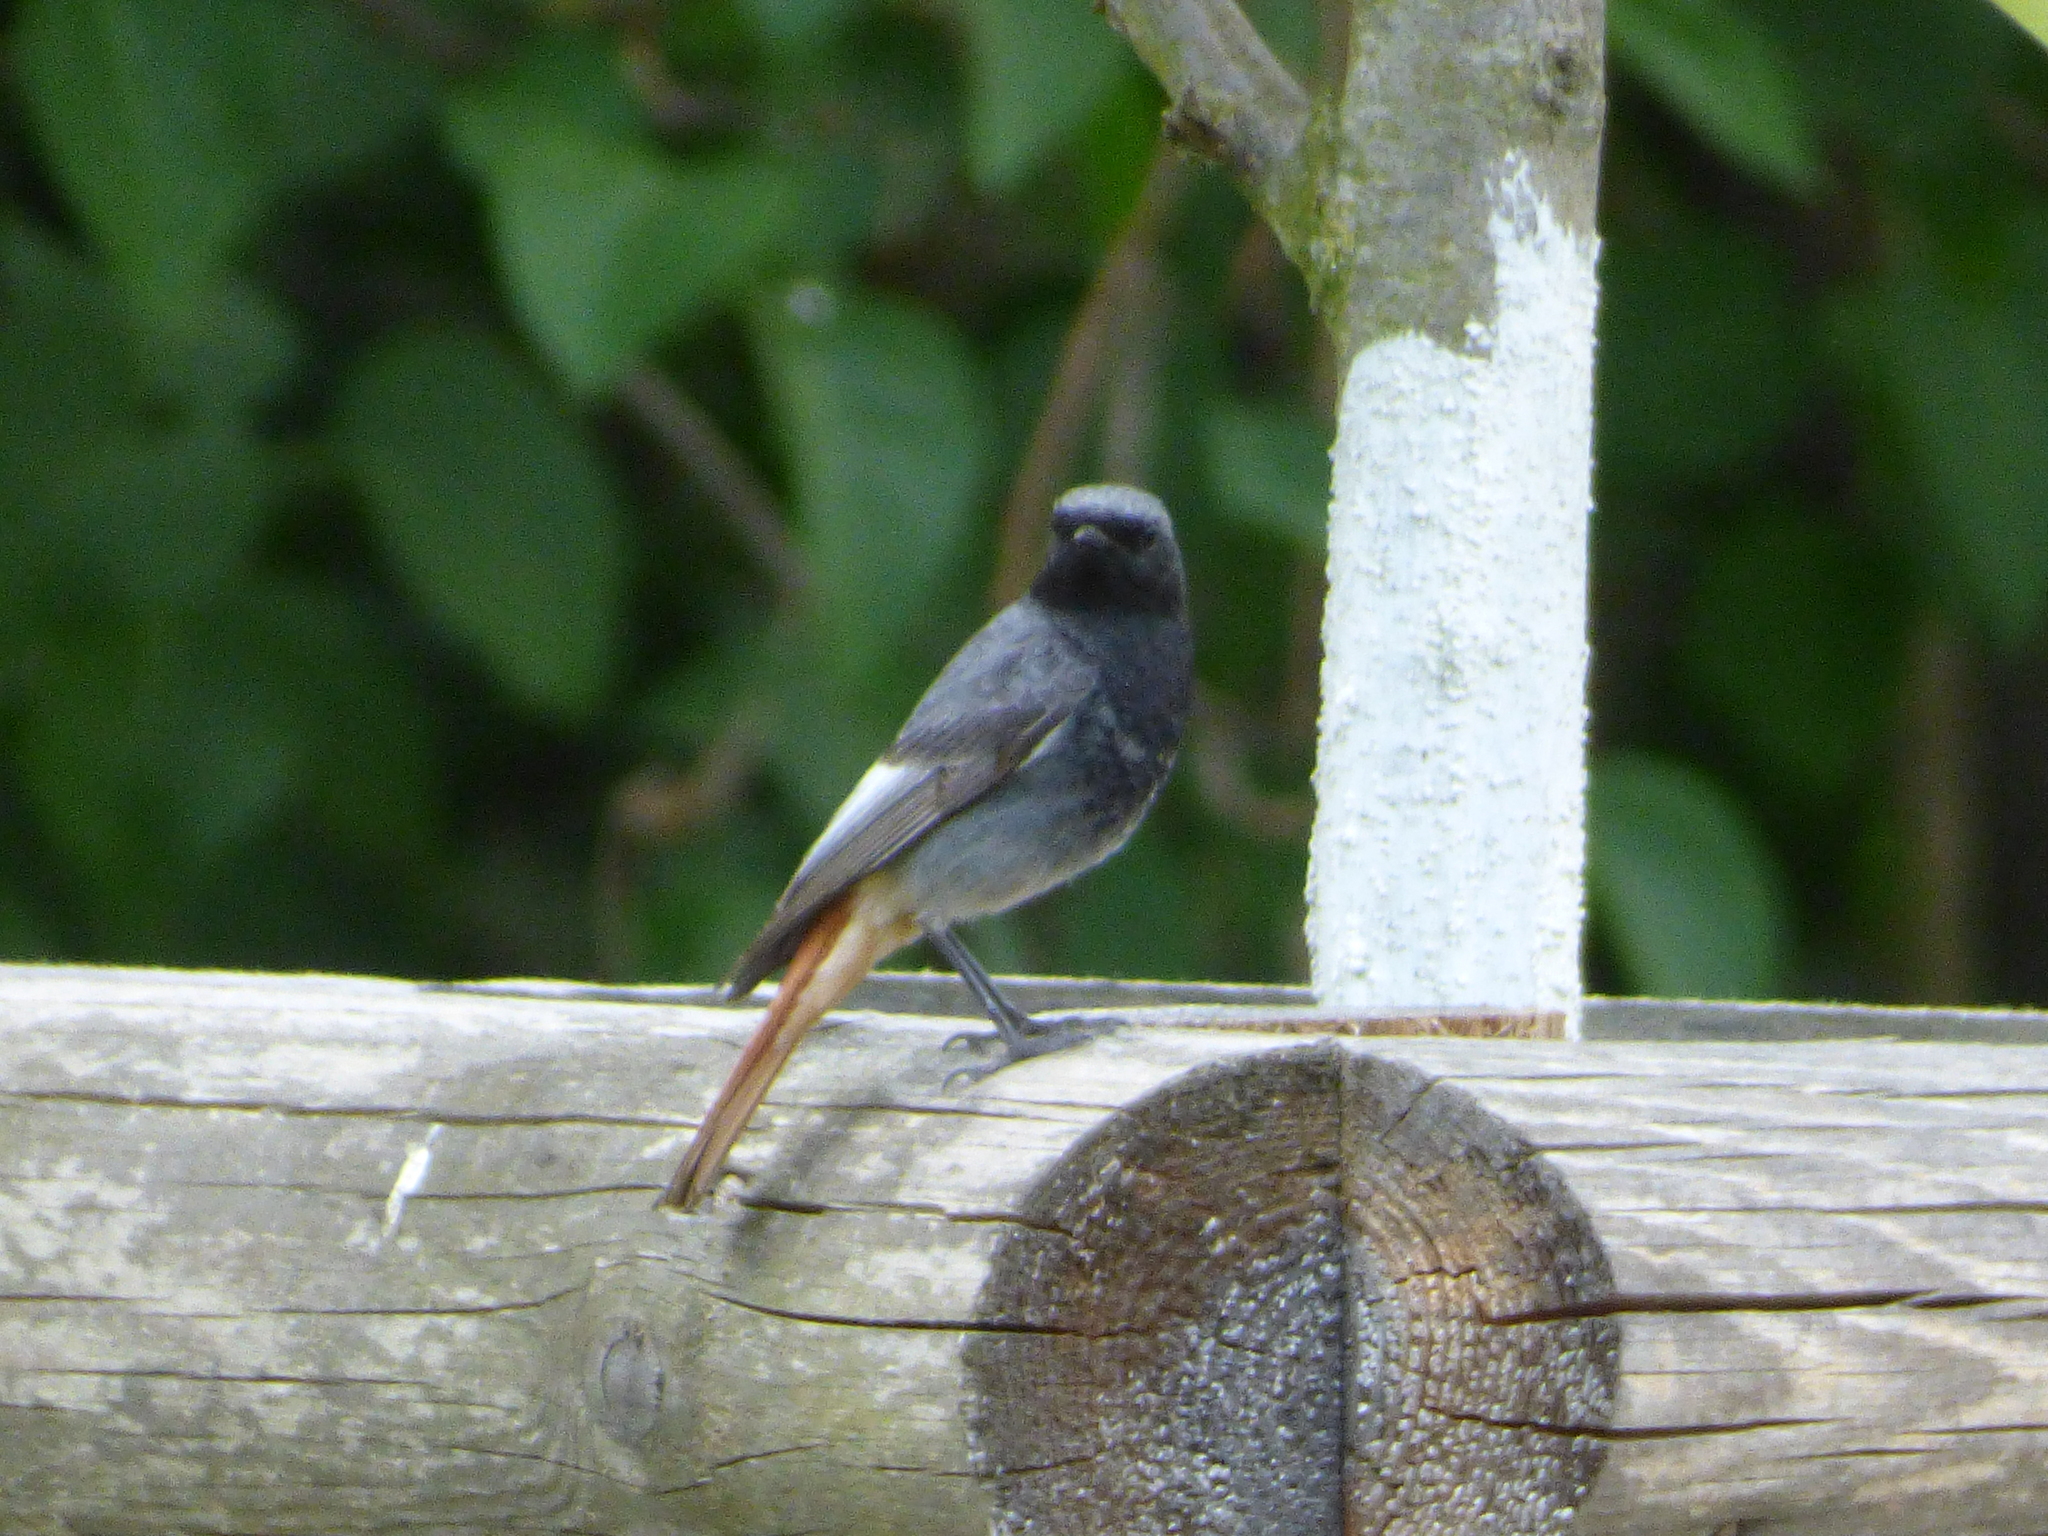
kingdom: Animalia
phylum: Chordata
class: Aves
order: Passeriformes
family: Muscicapidae
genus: Phoenicurus
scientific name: Phoenicurus ochruros
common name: Black redstart
